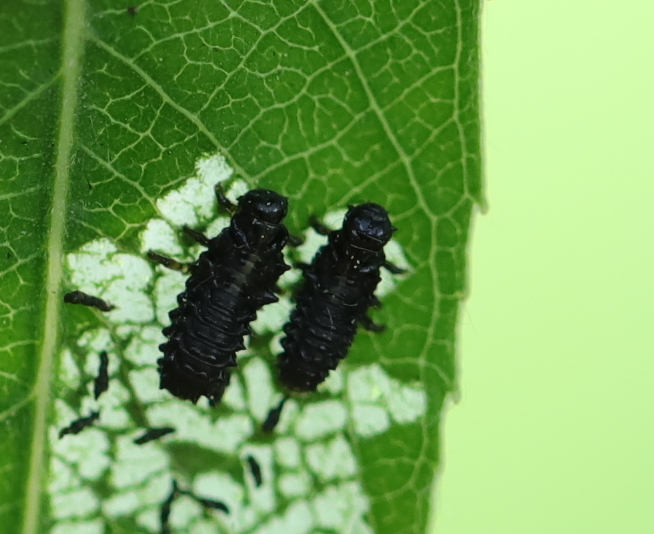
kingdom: Animalia
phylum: Arthropoda
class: Insecta
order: Coleoptera
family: Chrysomelidae
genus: Plagiodera
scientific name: Plagiodera versicolora
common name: Imported willow leaf beetle
